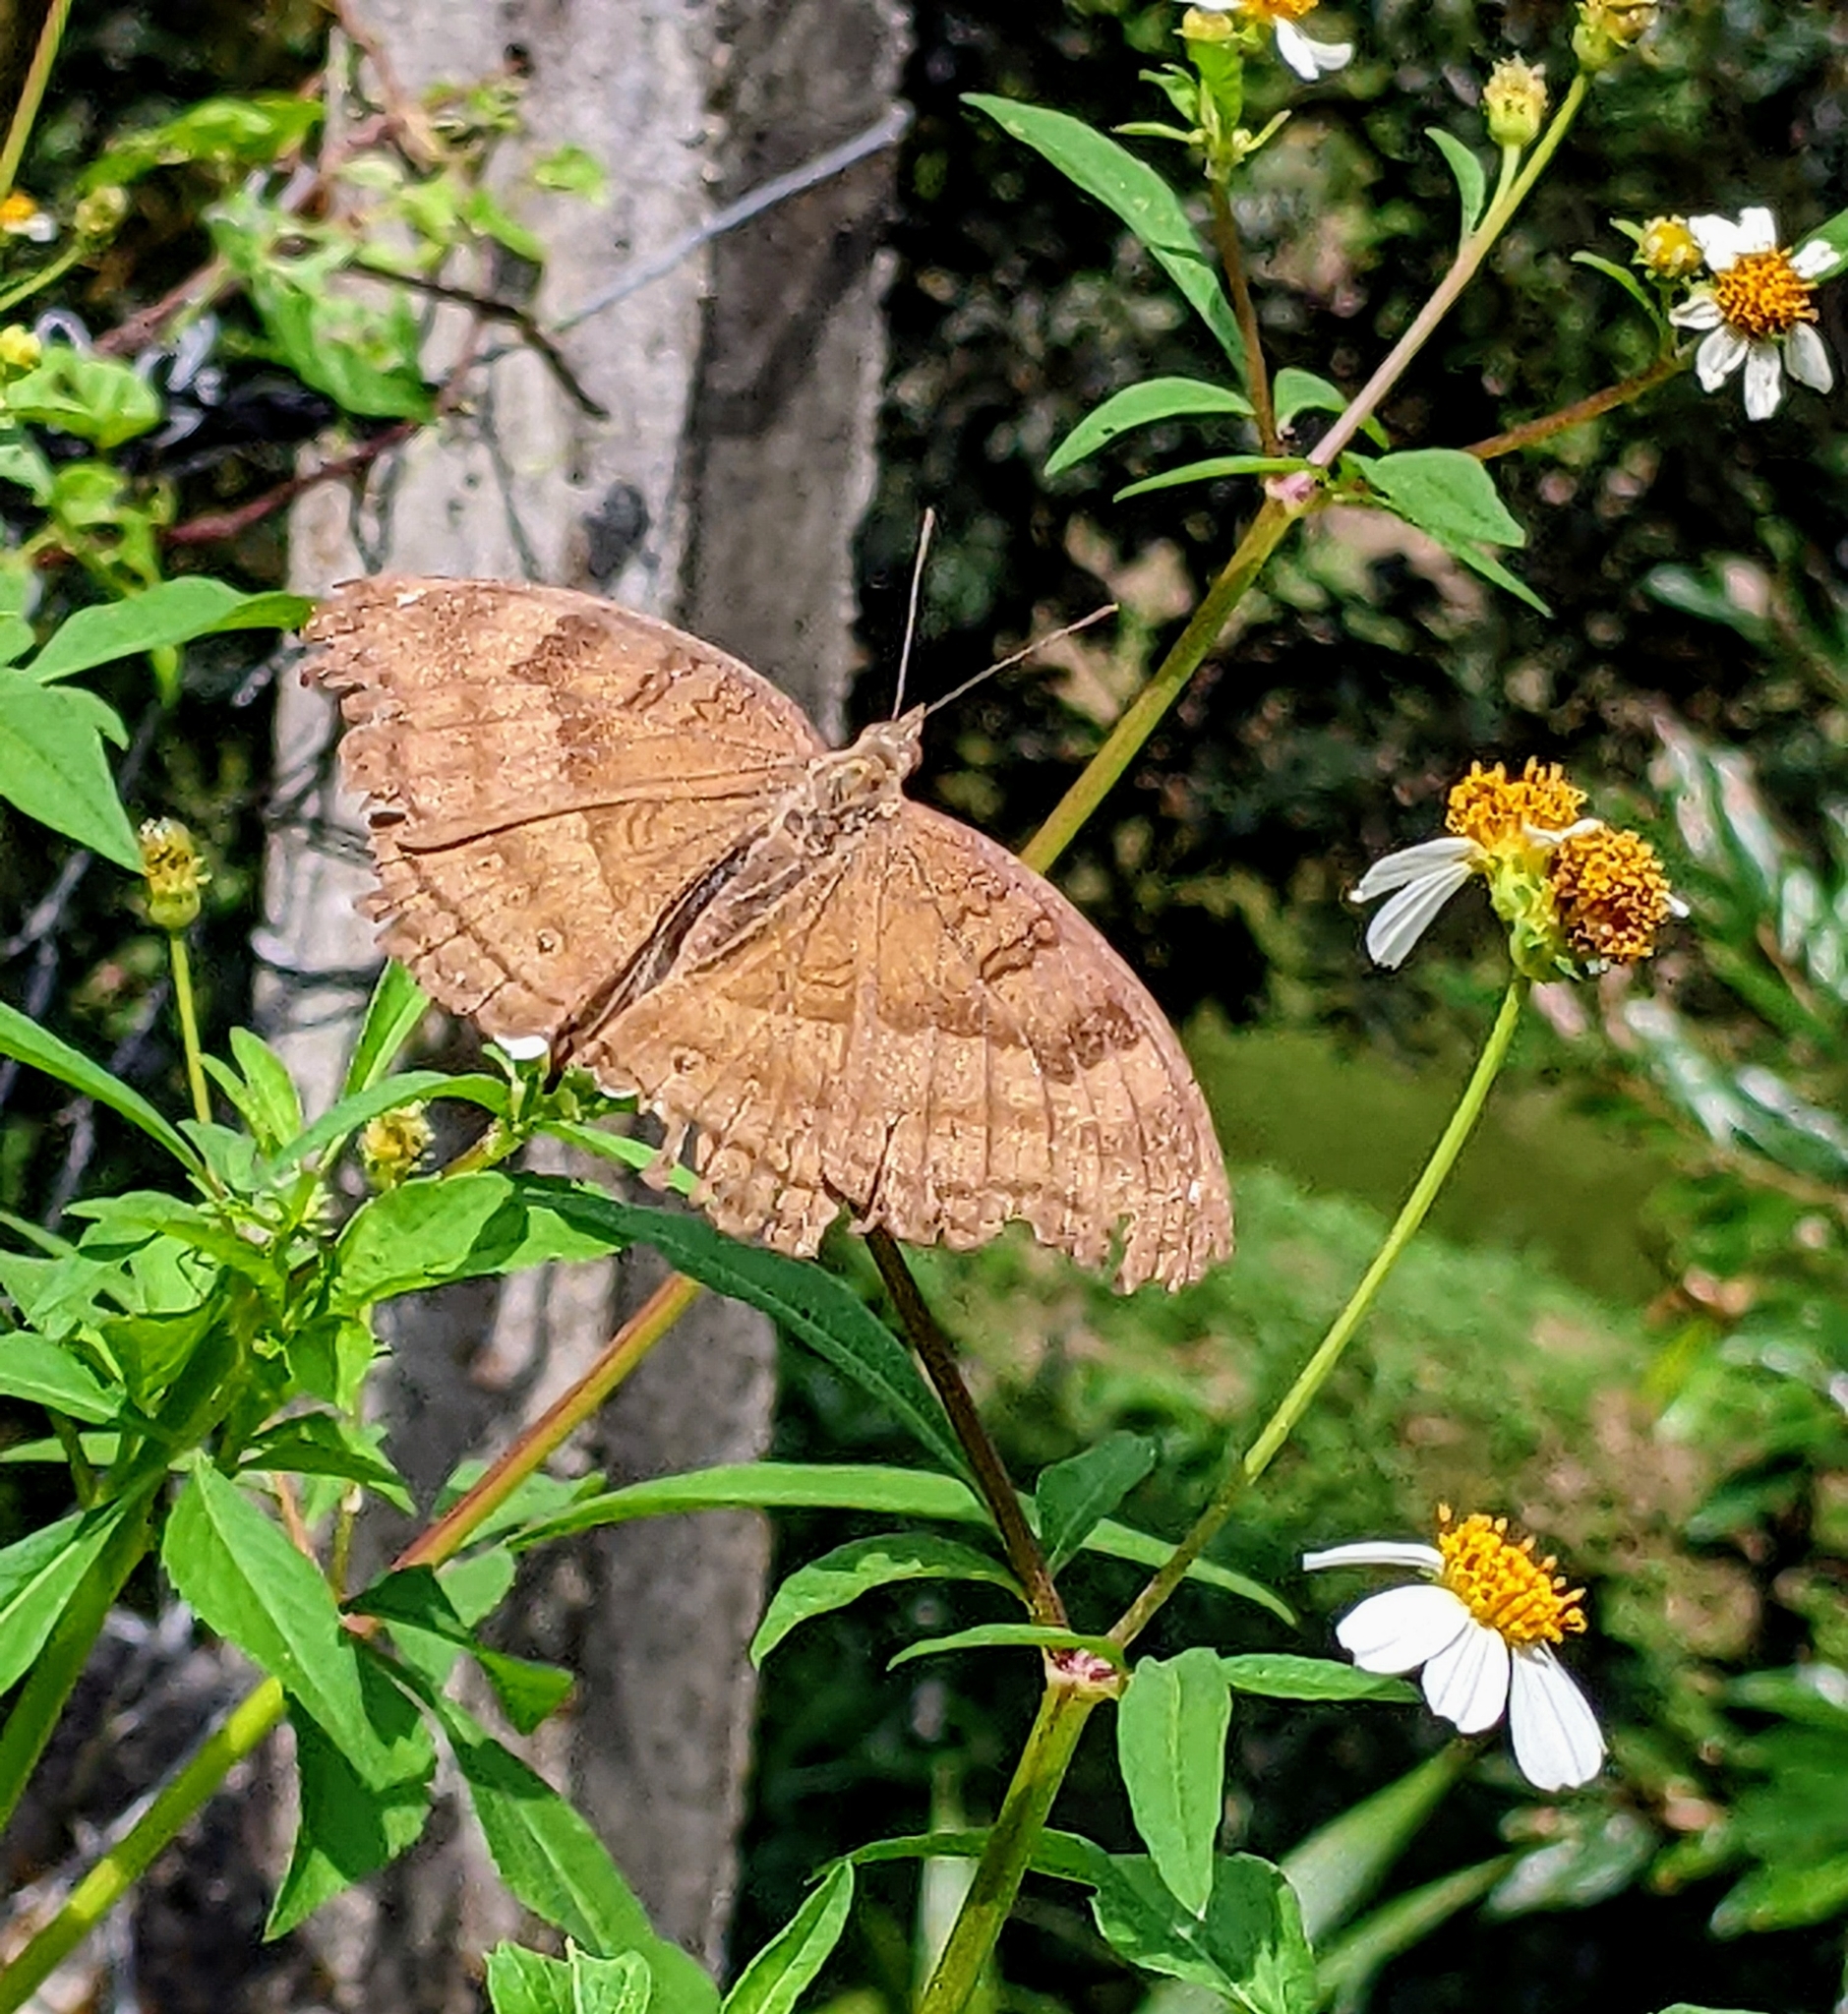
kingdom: Animalia
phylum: Arthropoda
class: Insecta
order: Lepidoptera
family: Nymphalidae
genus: Junonia
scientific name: Junonia iphita
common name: Chocolate pansy
